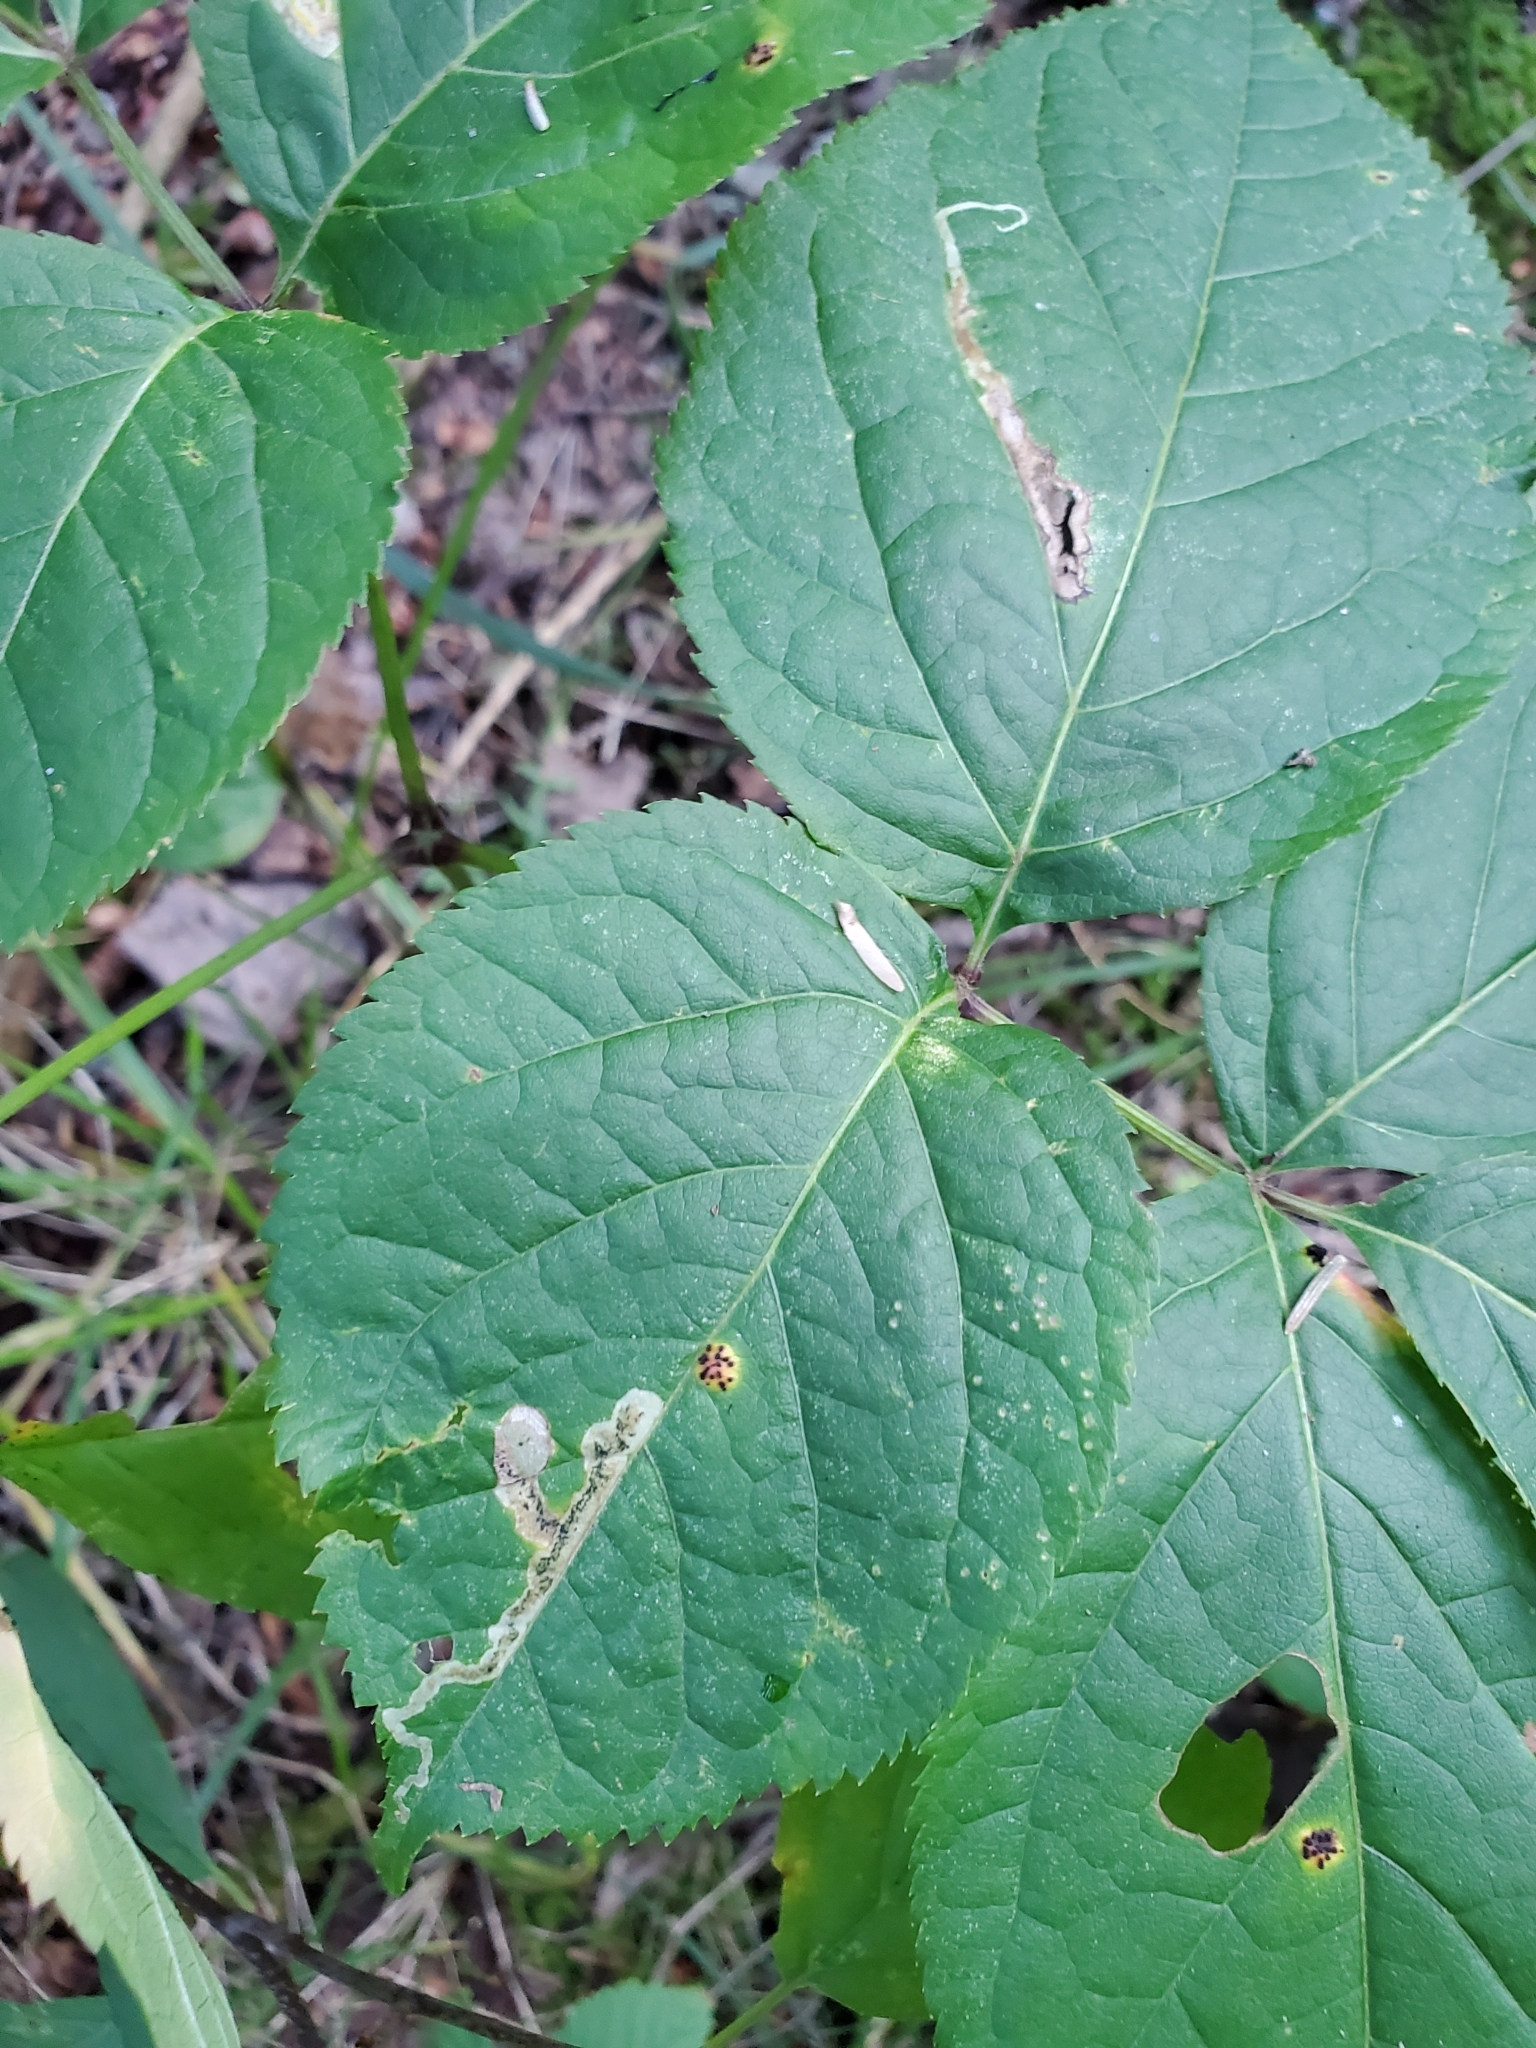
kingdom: Animalia
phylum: Arthropoda
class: Insecta
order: Diptera
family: Agromyzidae
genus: Phytomyza
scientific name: Phytomyza aralivora
